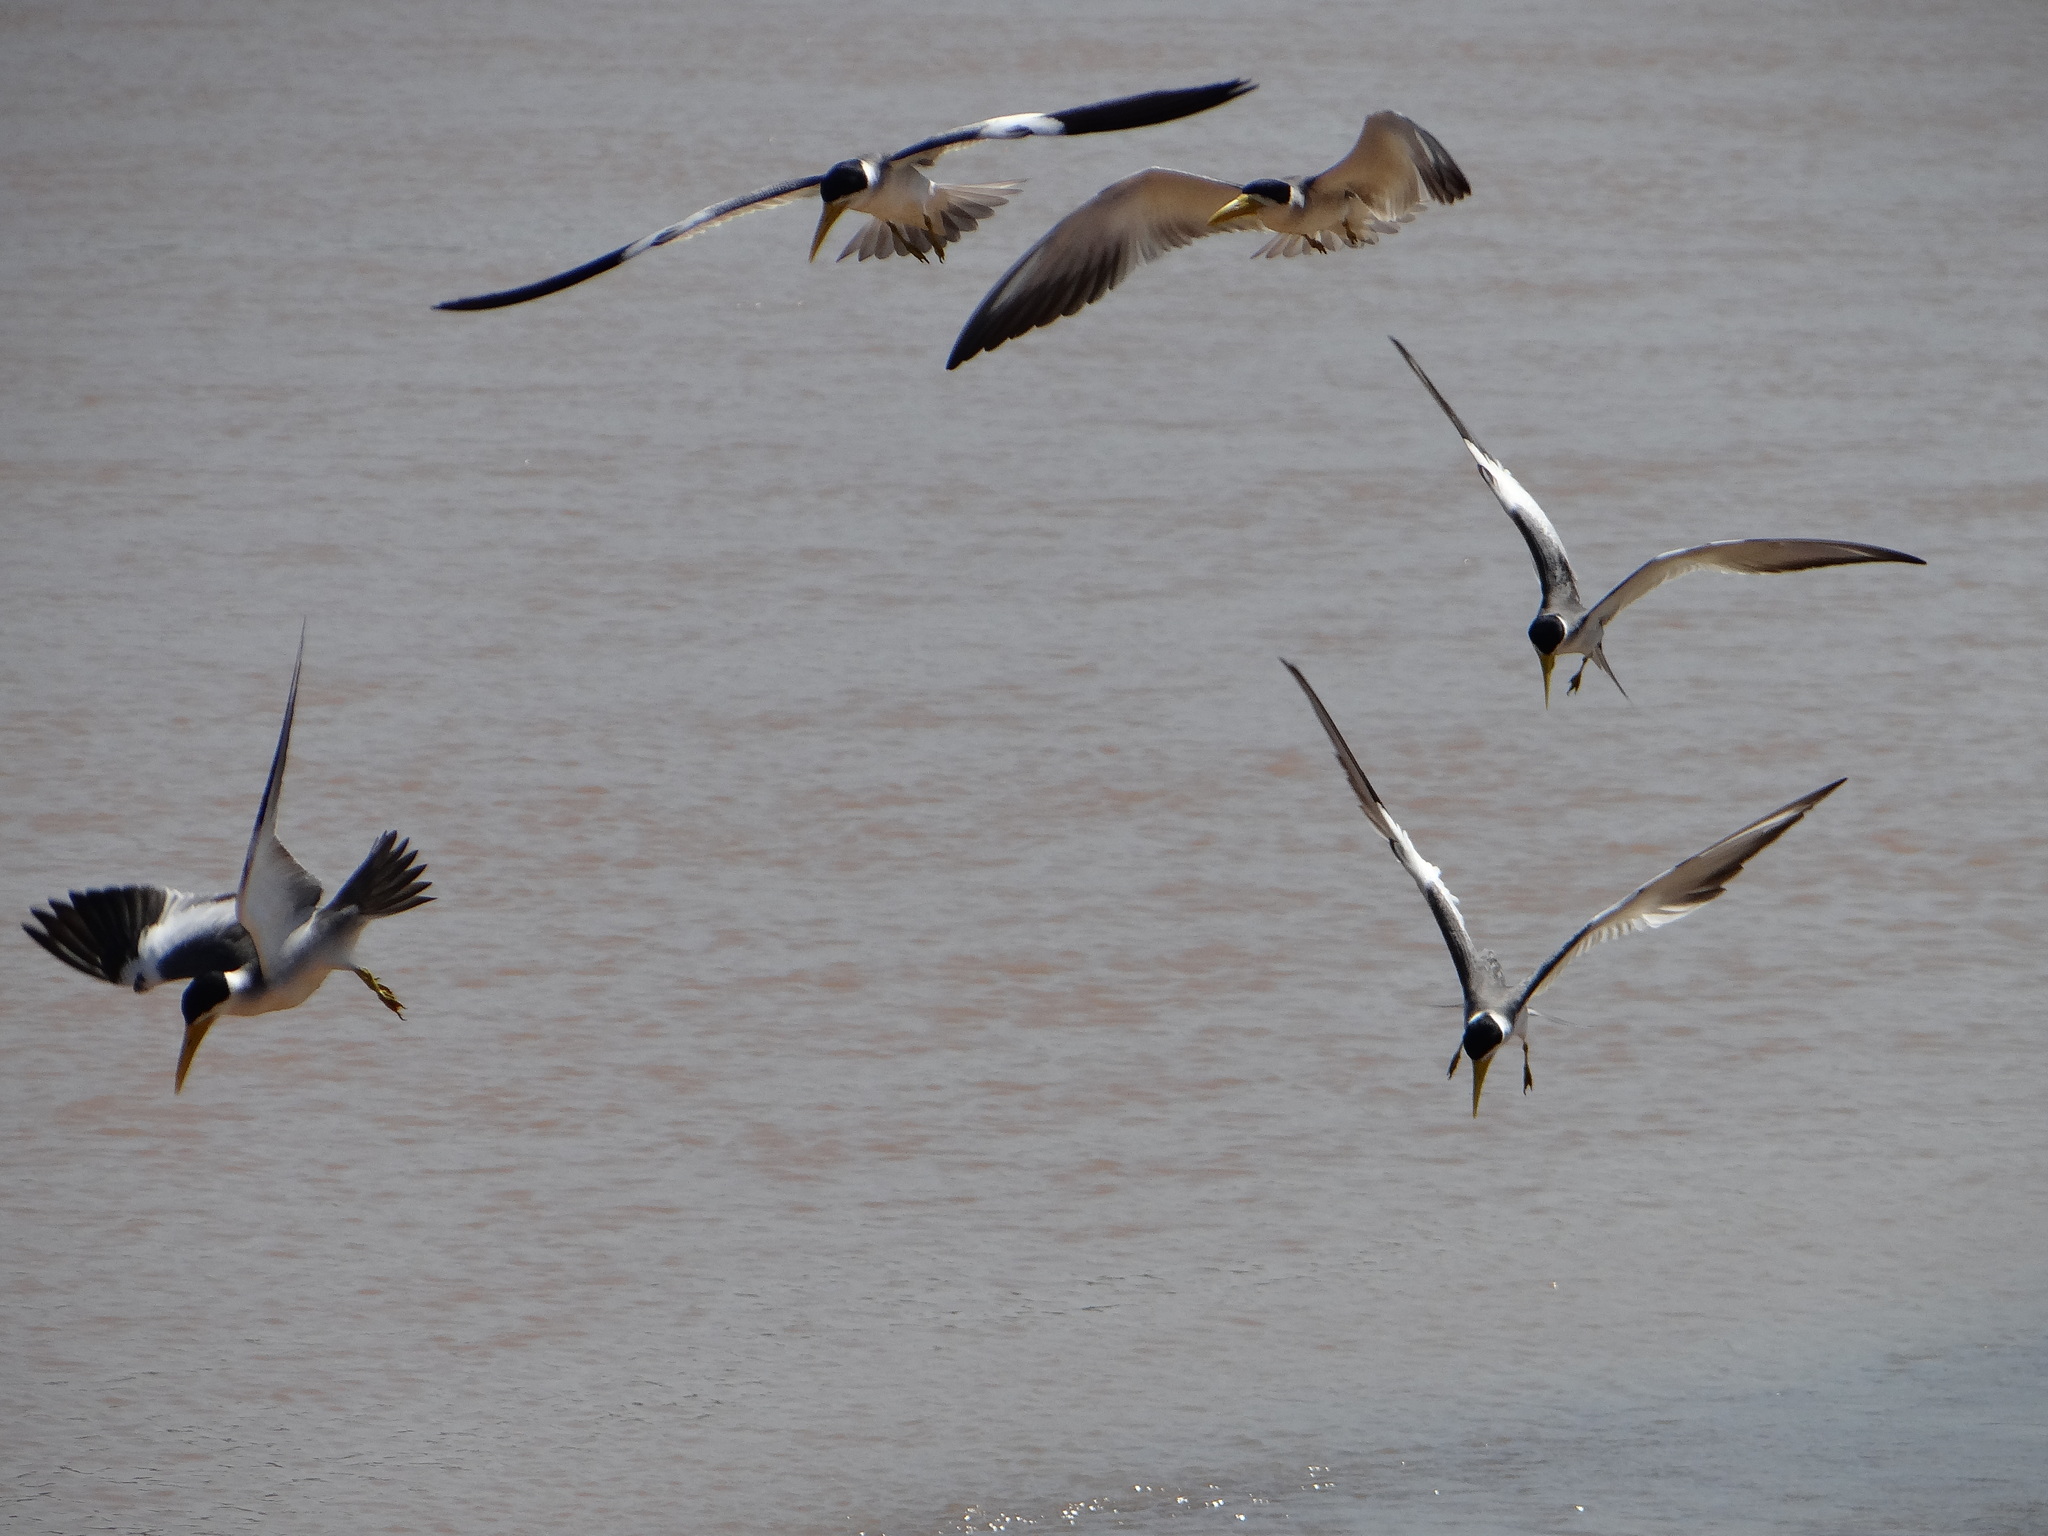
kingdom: Animalia
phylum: Chordata
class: Aves
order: Charadriiformes
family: Laridae
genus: Phaetusa
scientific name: Phaetusa simplex
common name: Large-billed tern
